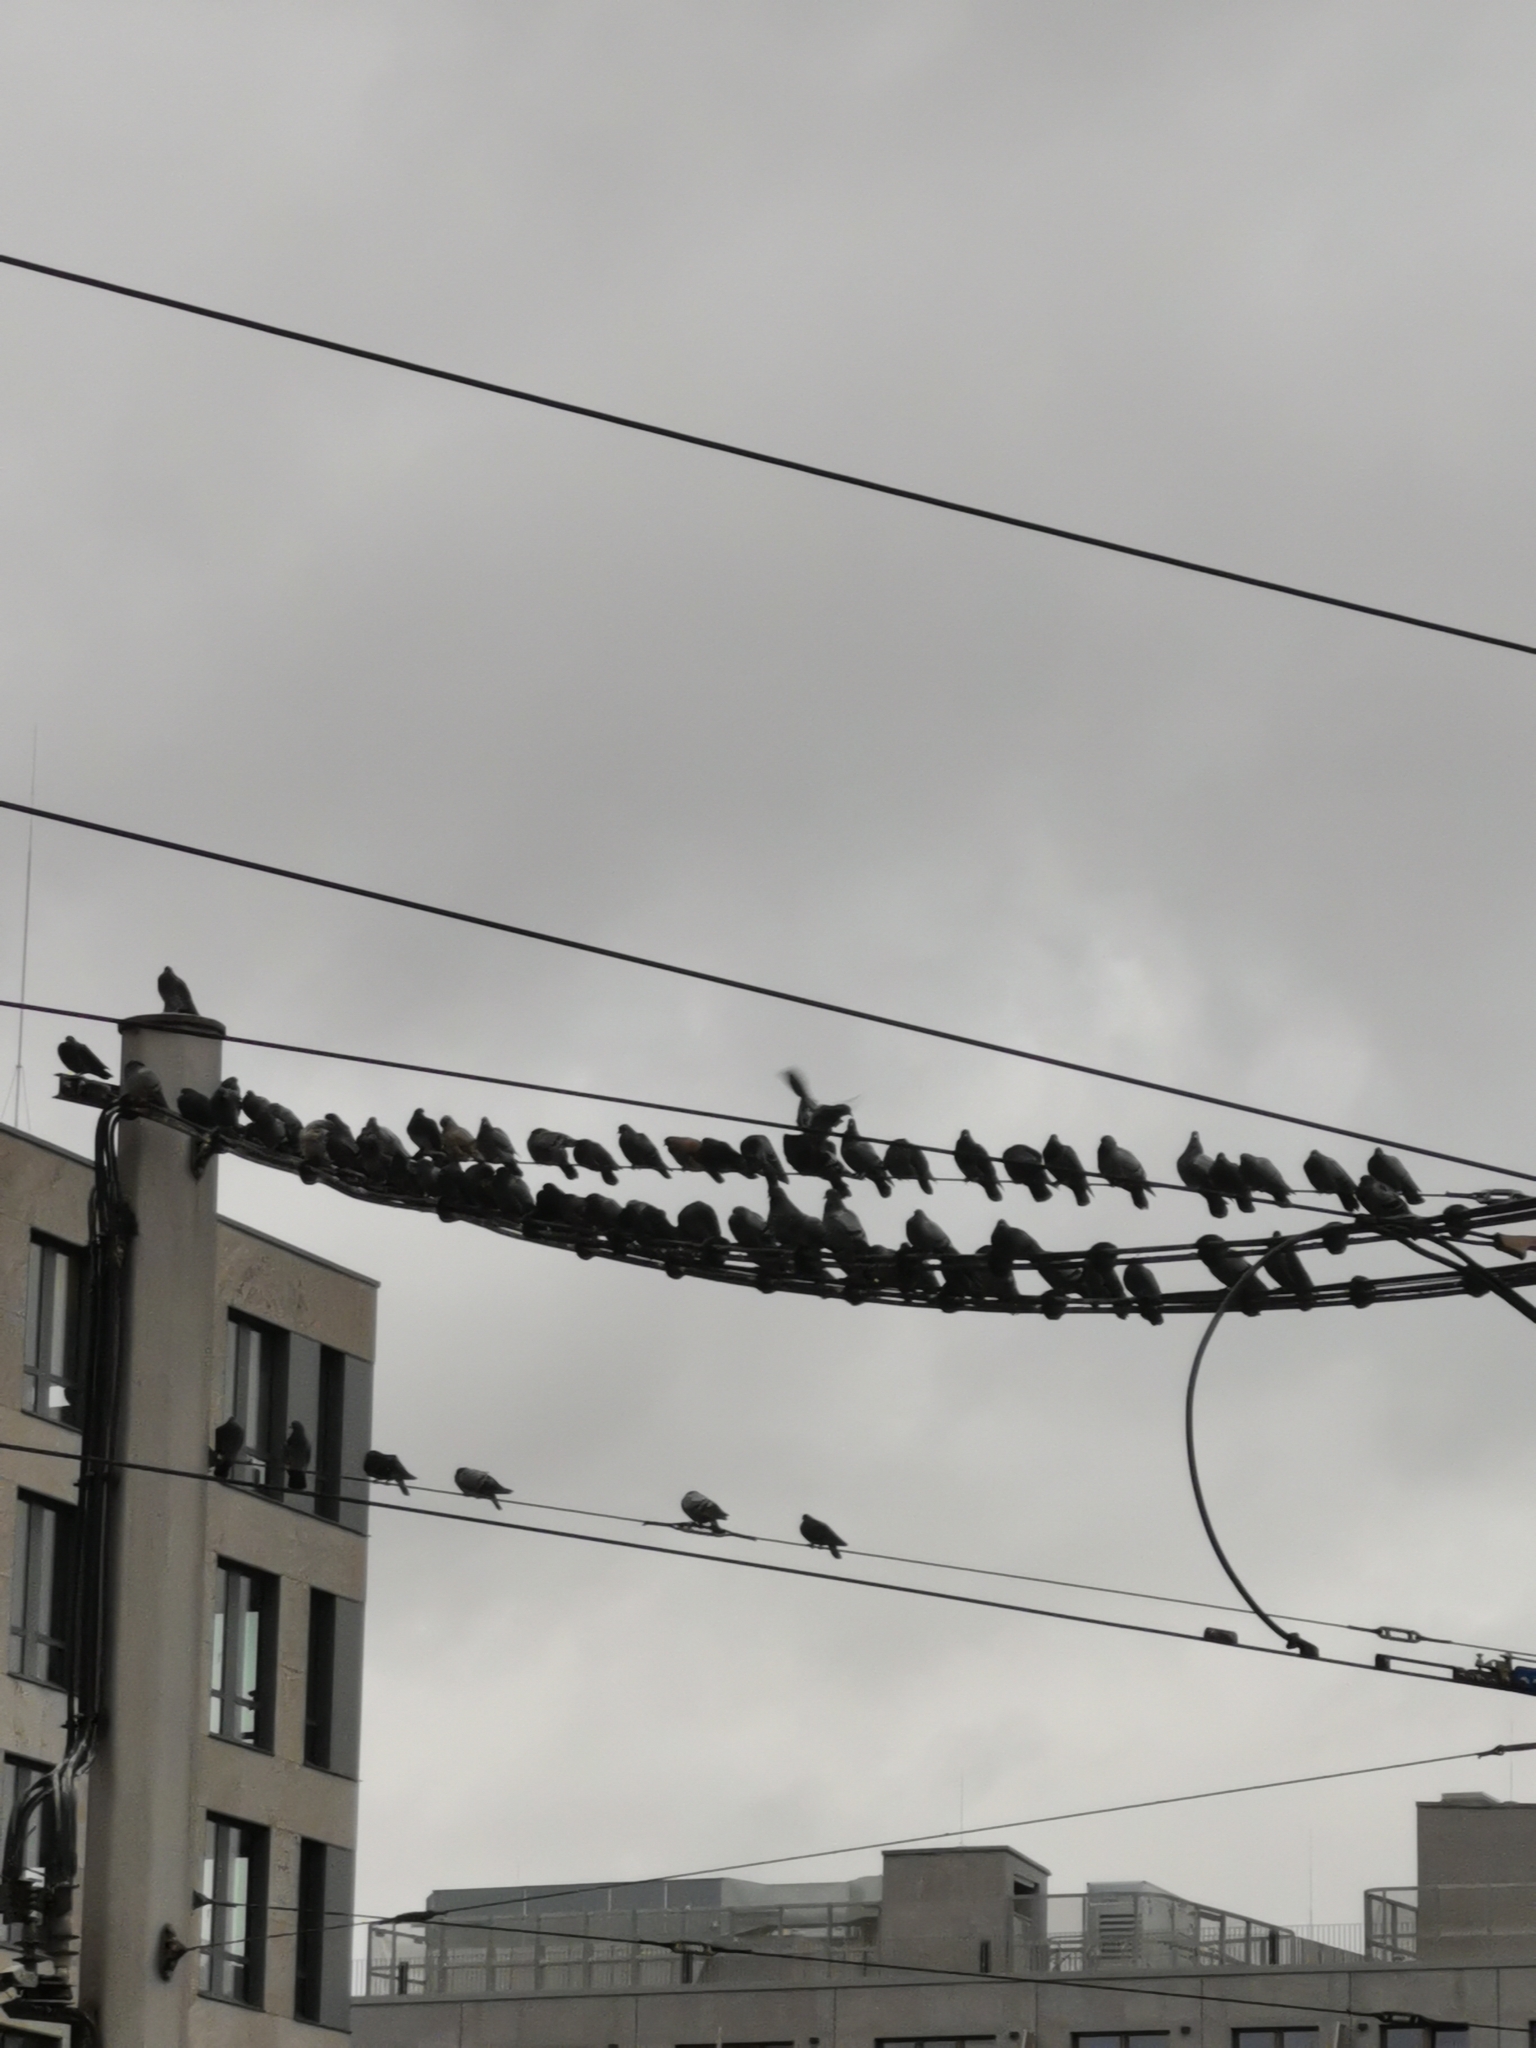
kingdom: Animalia
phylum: Chordata
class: Aves
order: Columbiformes
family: Columbidae
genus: Columba
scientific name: Columba livia
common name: Rock pigeon
